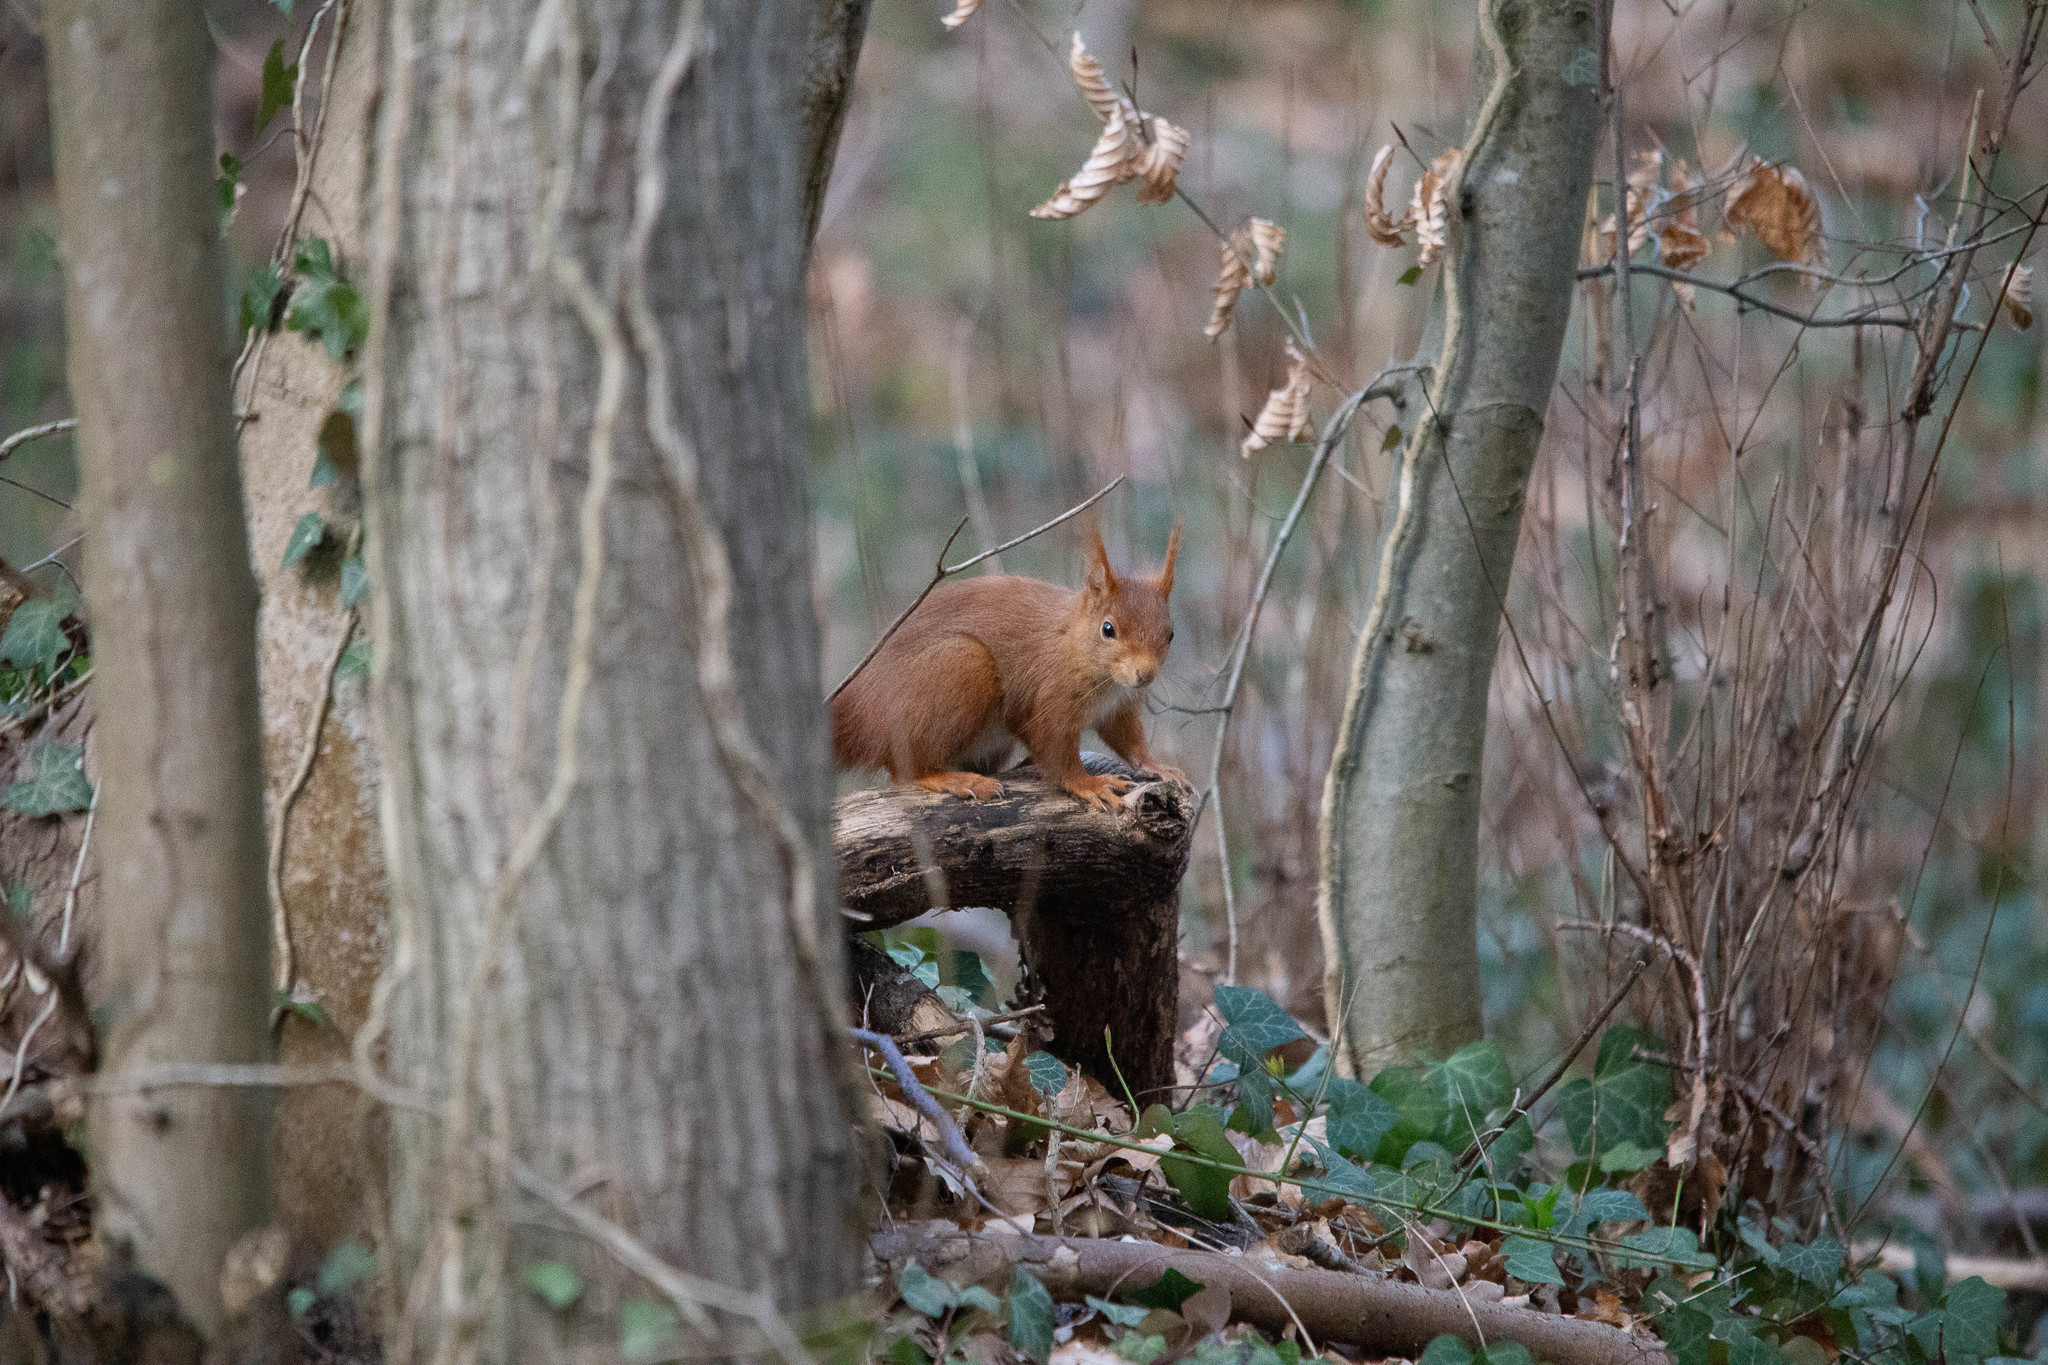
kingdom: Animalia
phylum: Chordata
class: Mammalia
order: Rodentia
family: Sciuridae
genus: Sciurus
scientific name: Sciurus vulgaris
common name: Eurasian red squirrel
